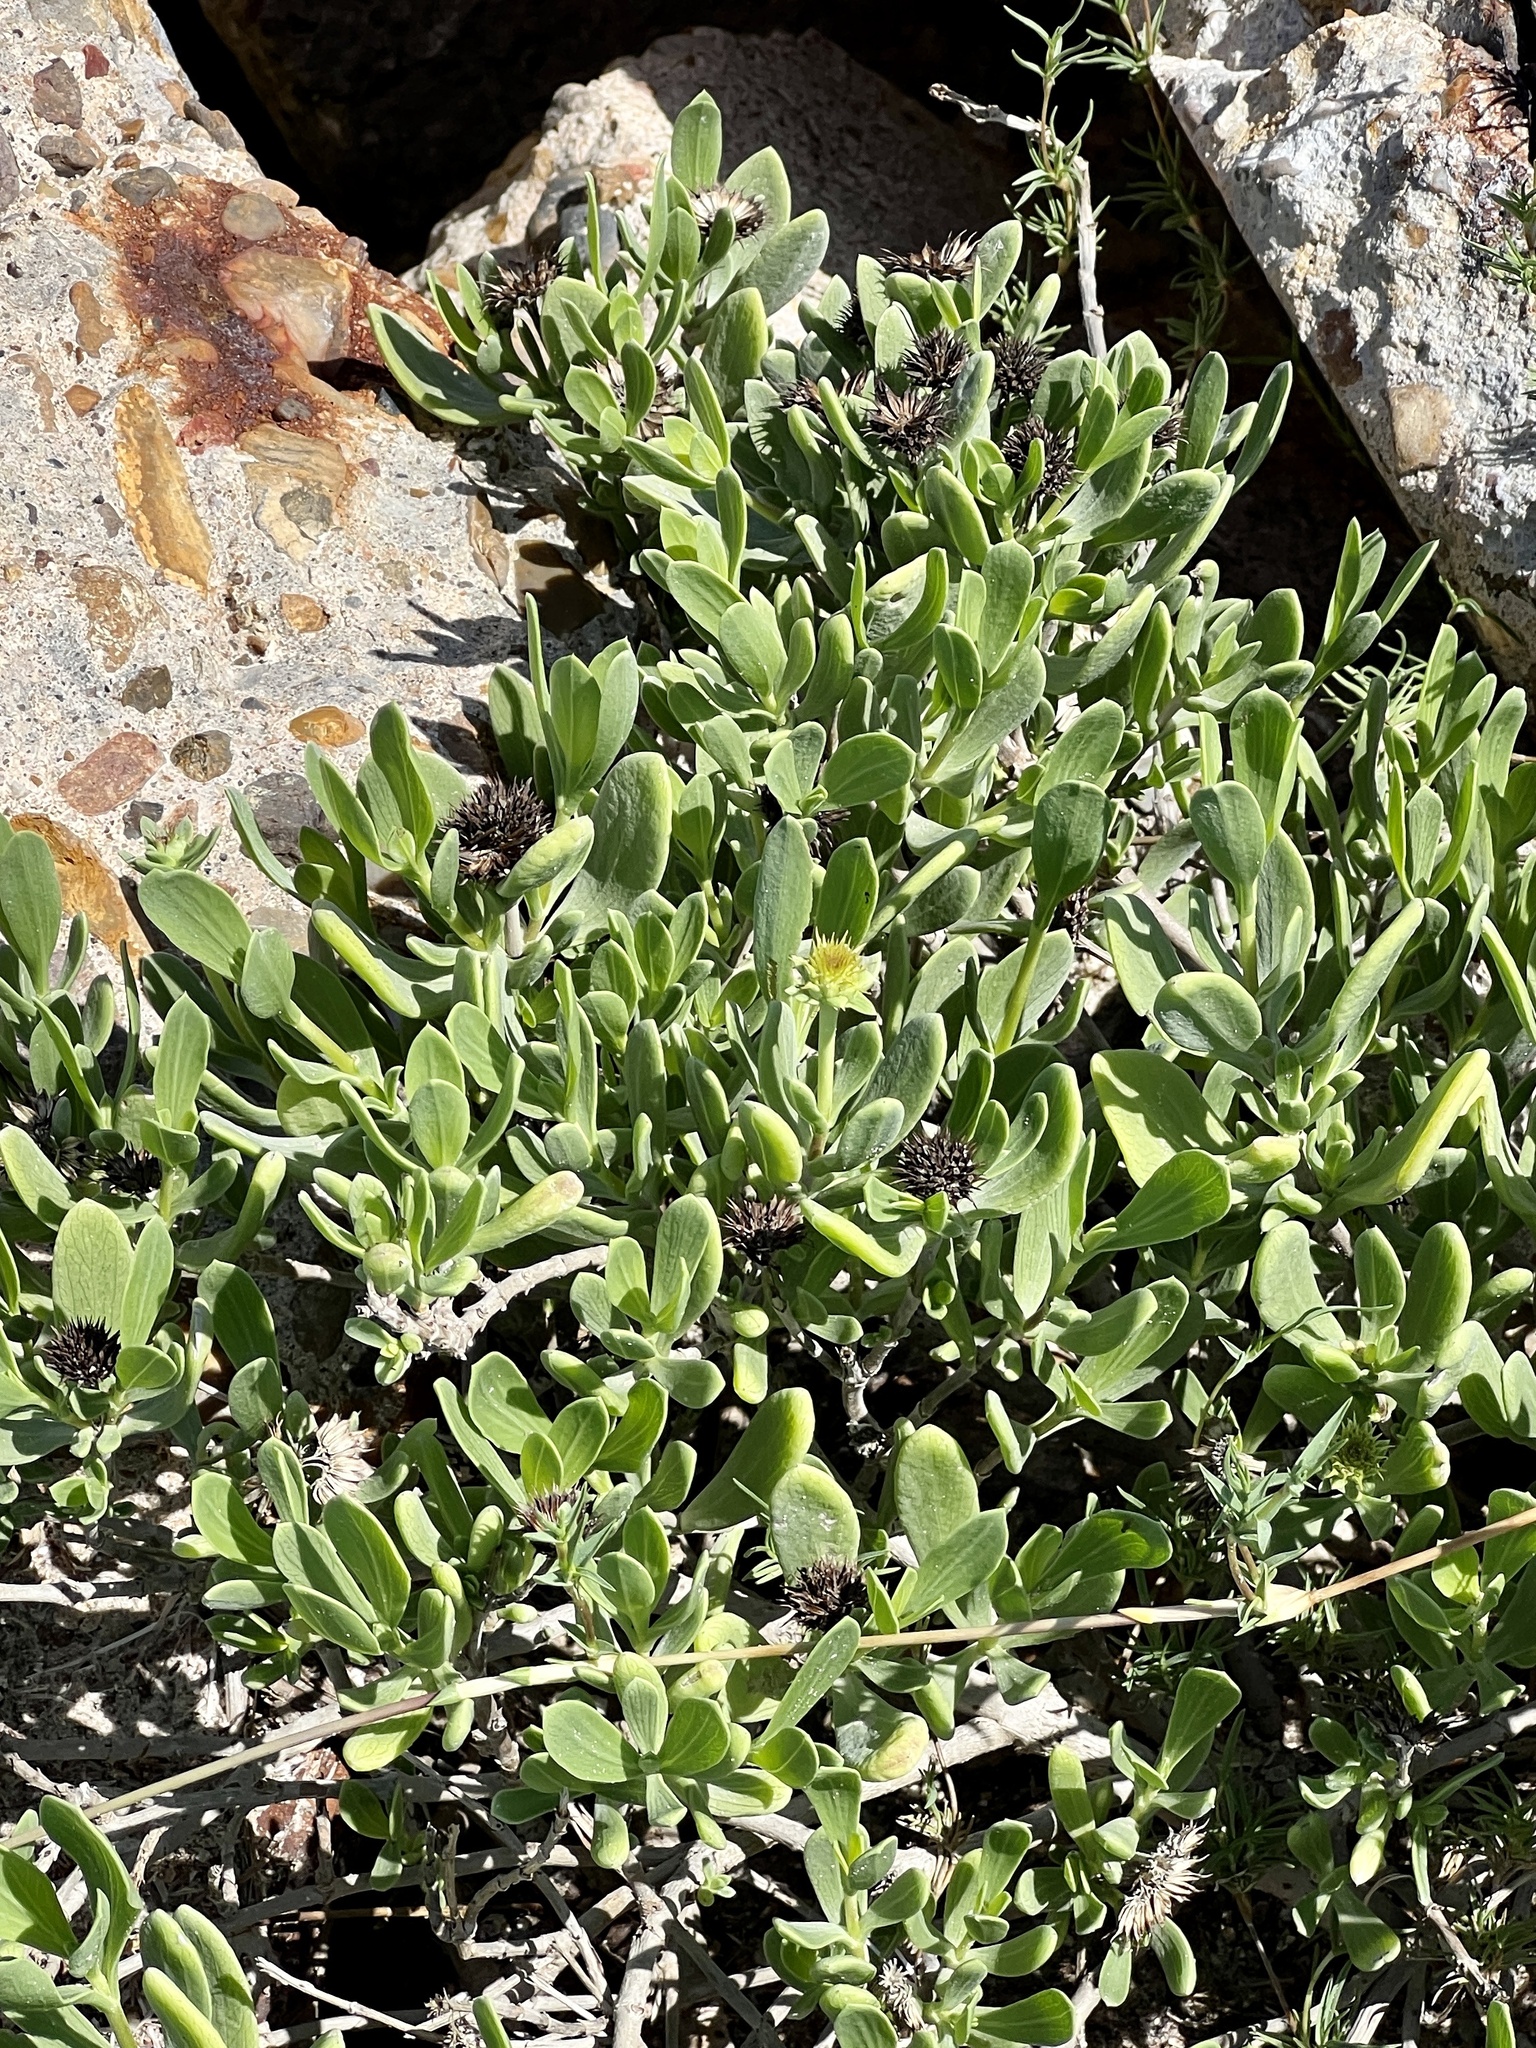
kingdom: Plantae
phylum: Tracheophyta
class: Magnoliopsida
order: Asterales
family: Asteraceae
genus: Borrichia
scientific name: Borrichia frutescens
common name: Sea oxeye
